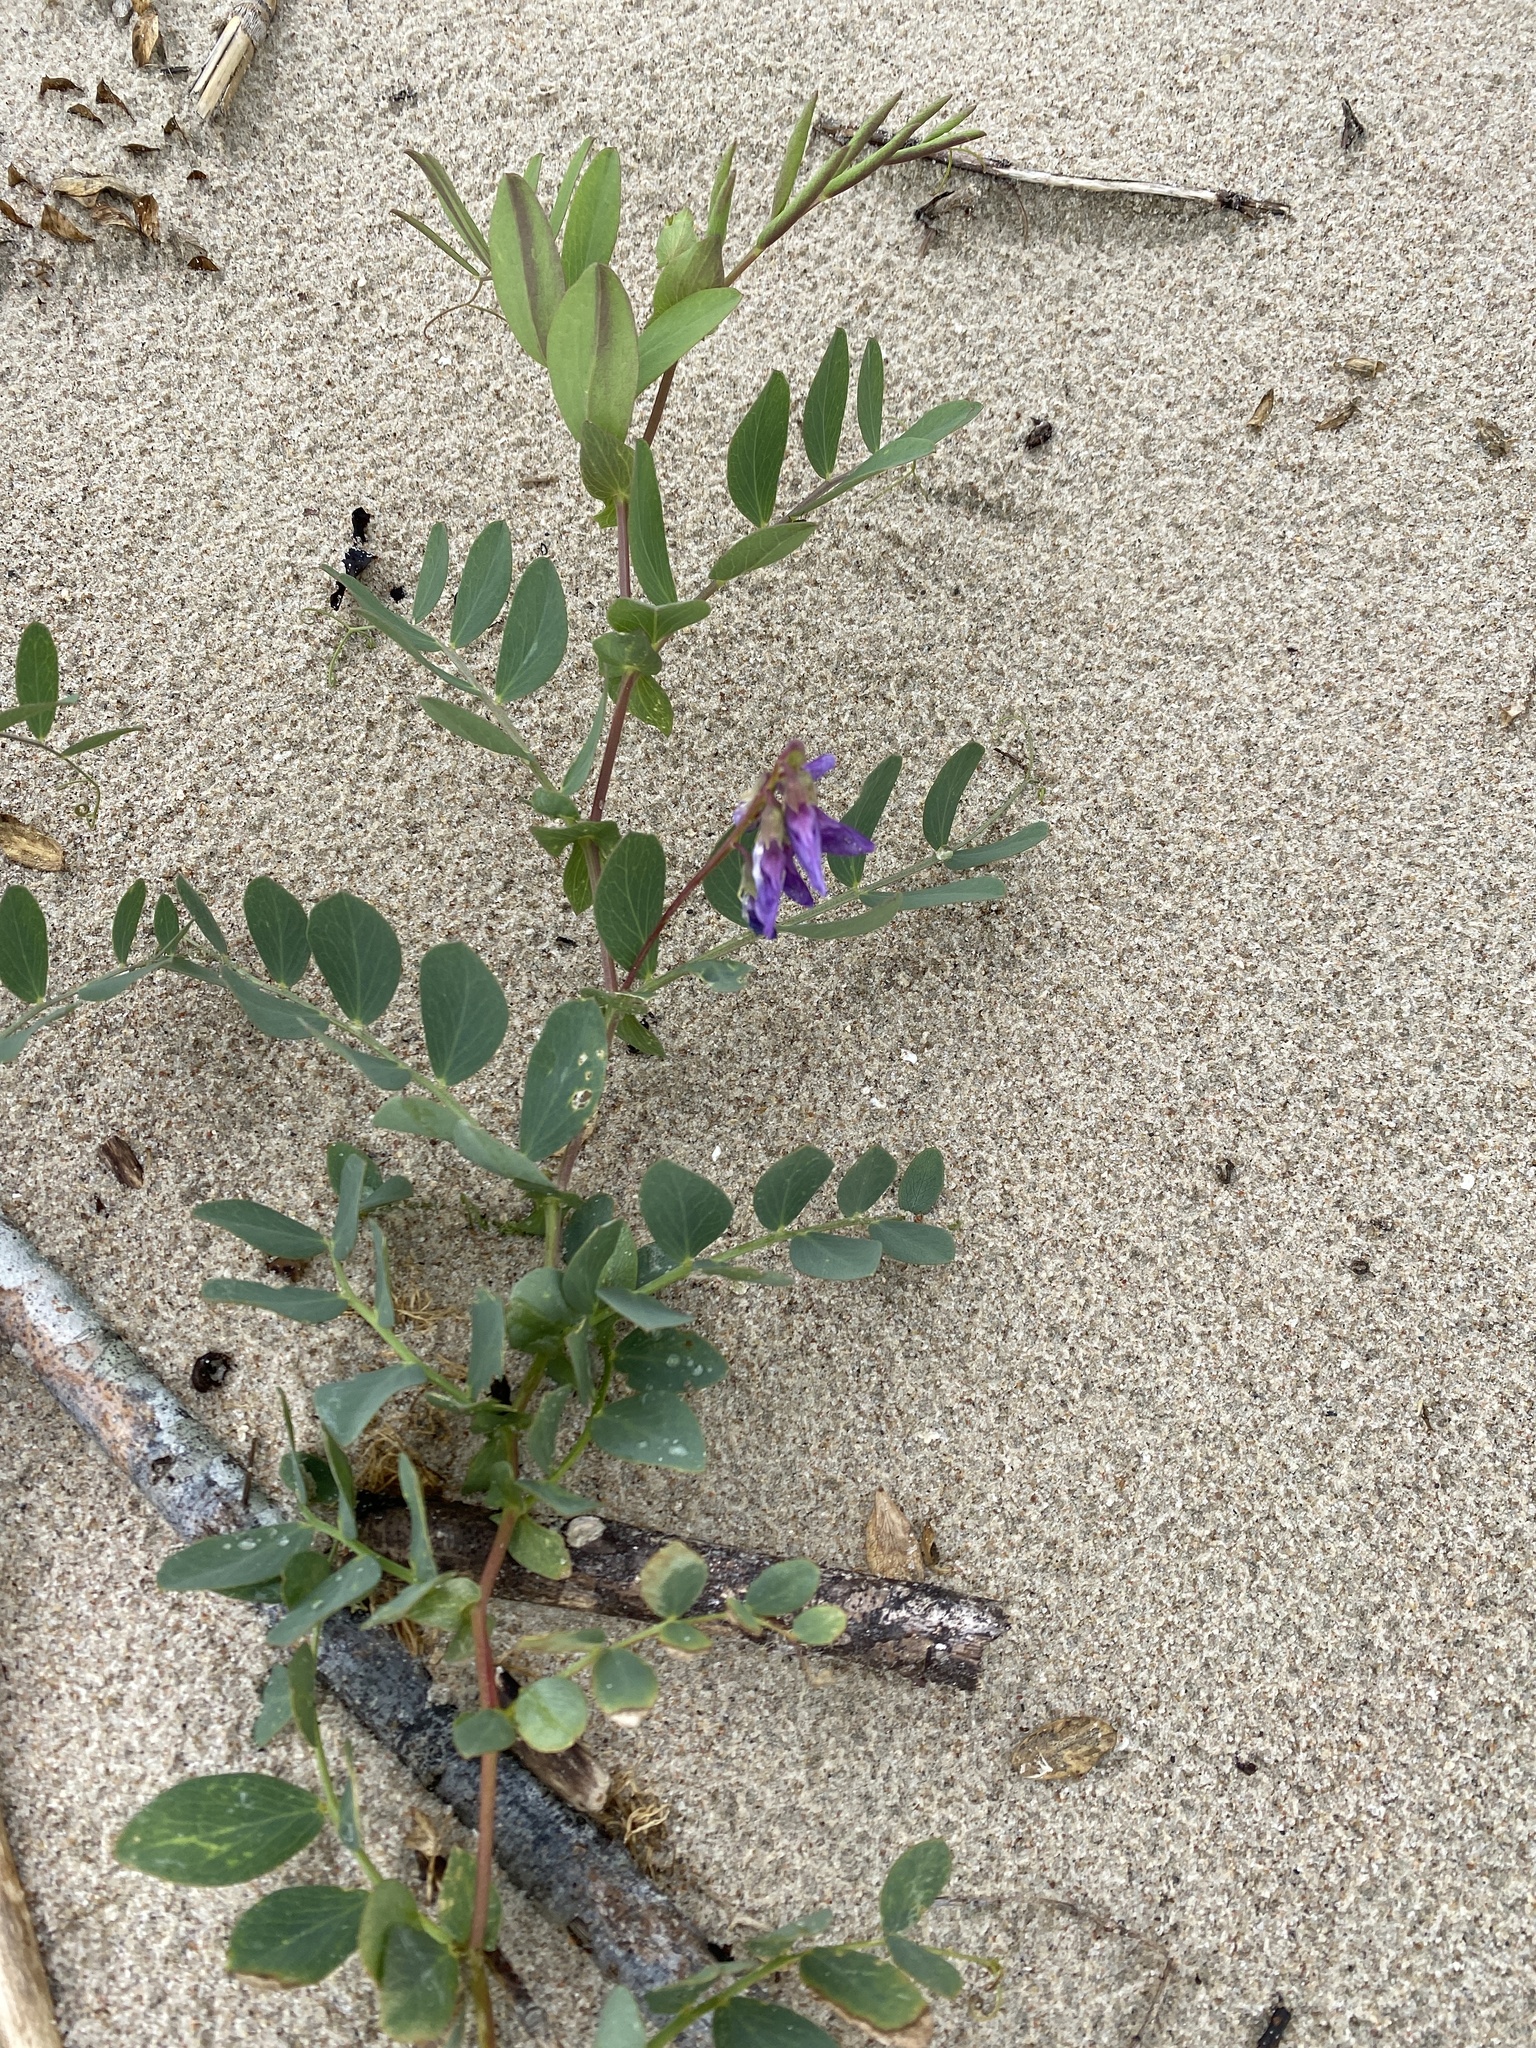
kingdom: Plantae
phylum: Tracheophyta
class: Magnoliopsida
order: Fabales
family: Fabaceae
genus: Lathyrus
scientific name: Lathyrus japonicus
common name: Sea pea
